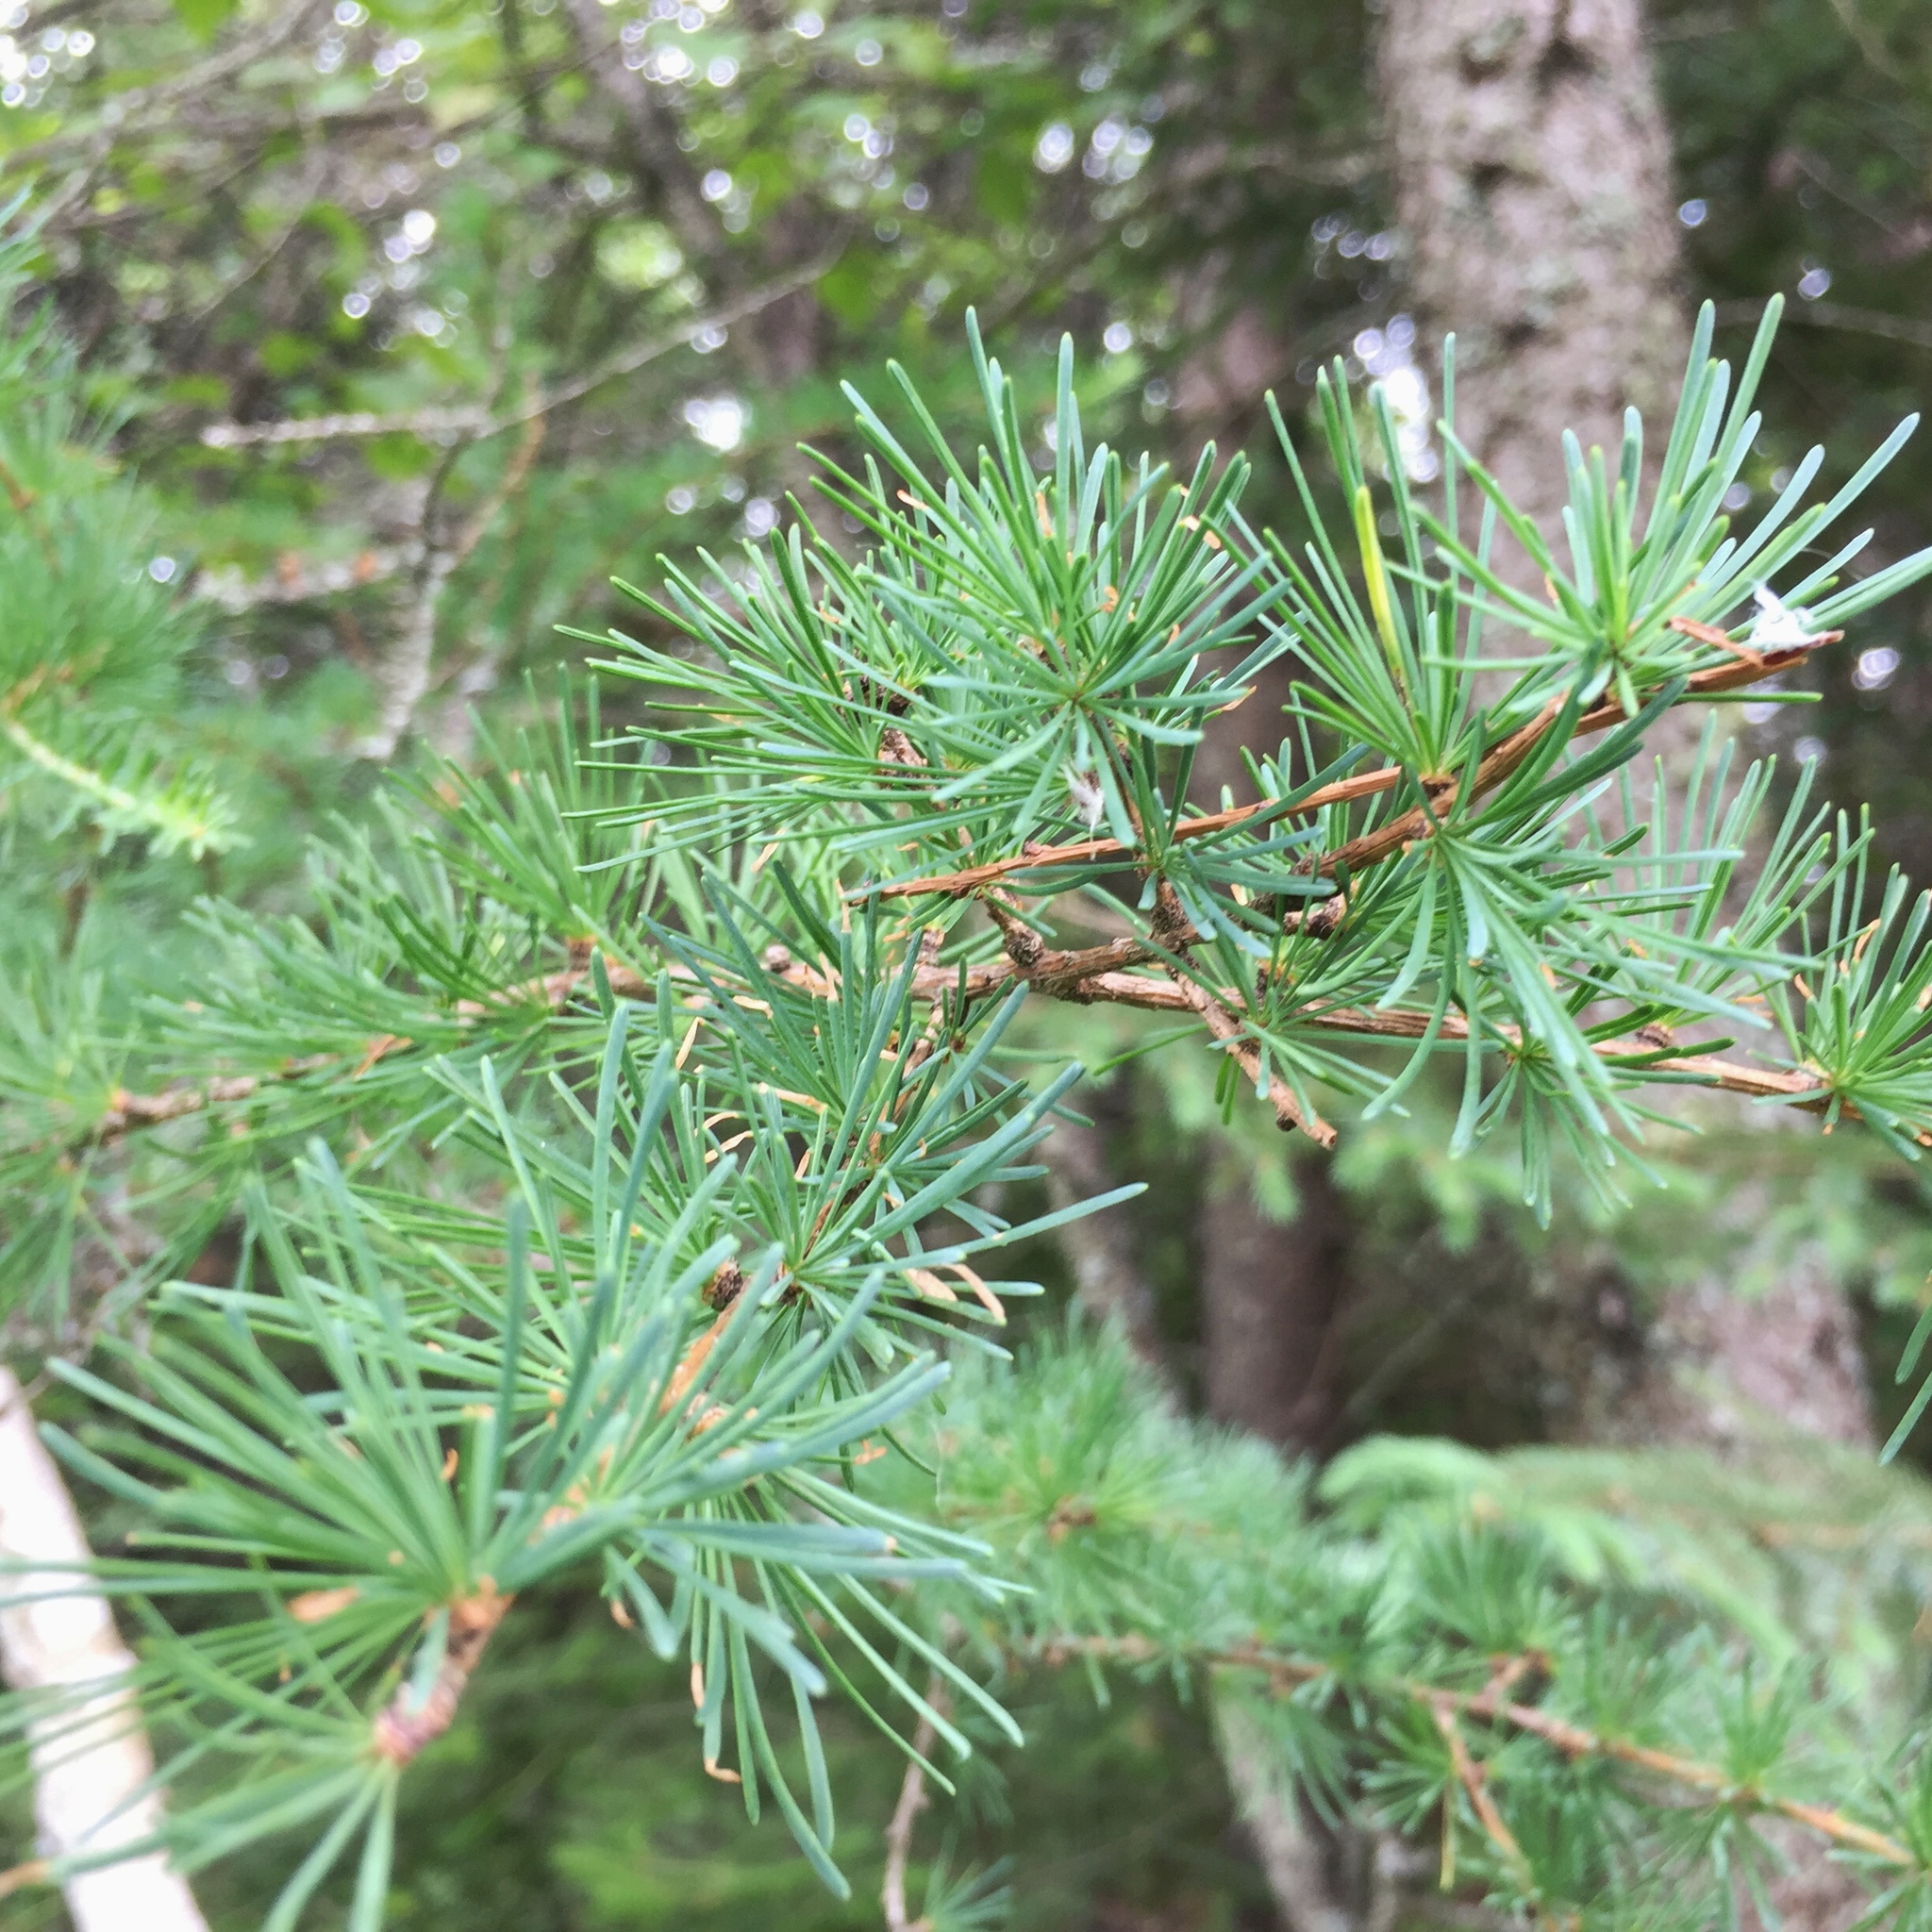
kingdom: Plantae
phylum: Tracheophyta
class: Pinopsida
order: Pinales
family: Pinaceae
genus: Larix
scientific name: Larix laricina
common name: American larch
